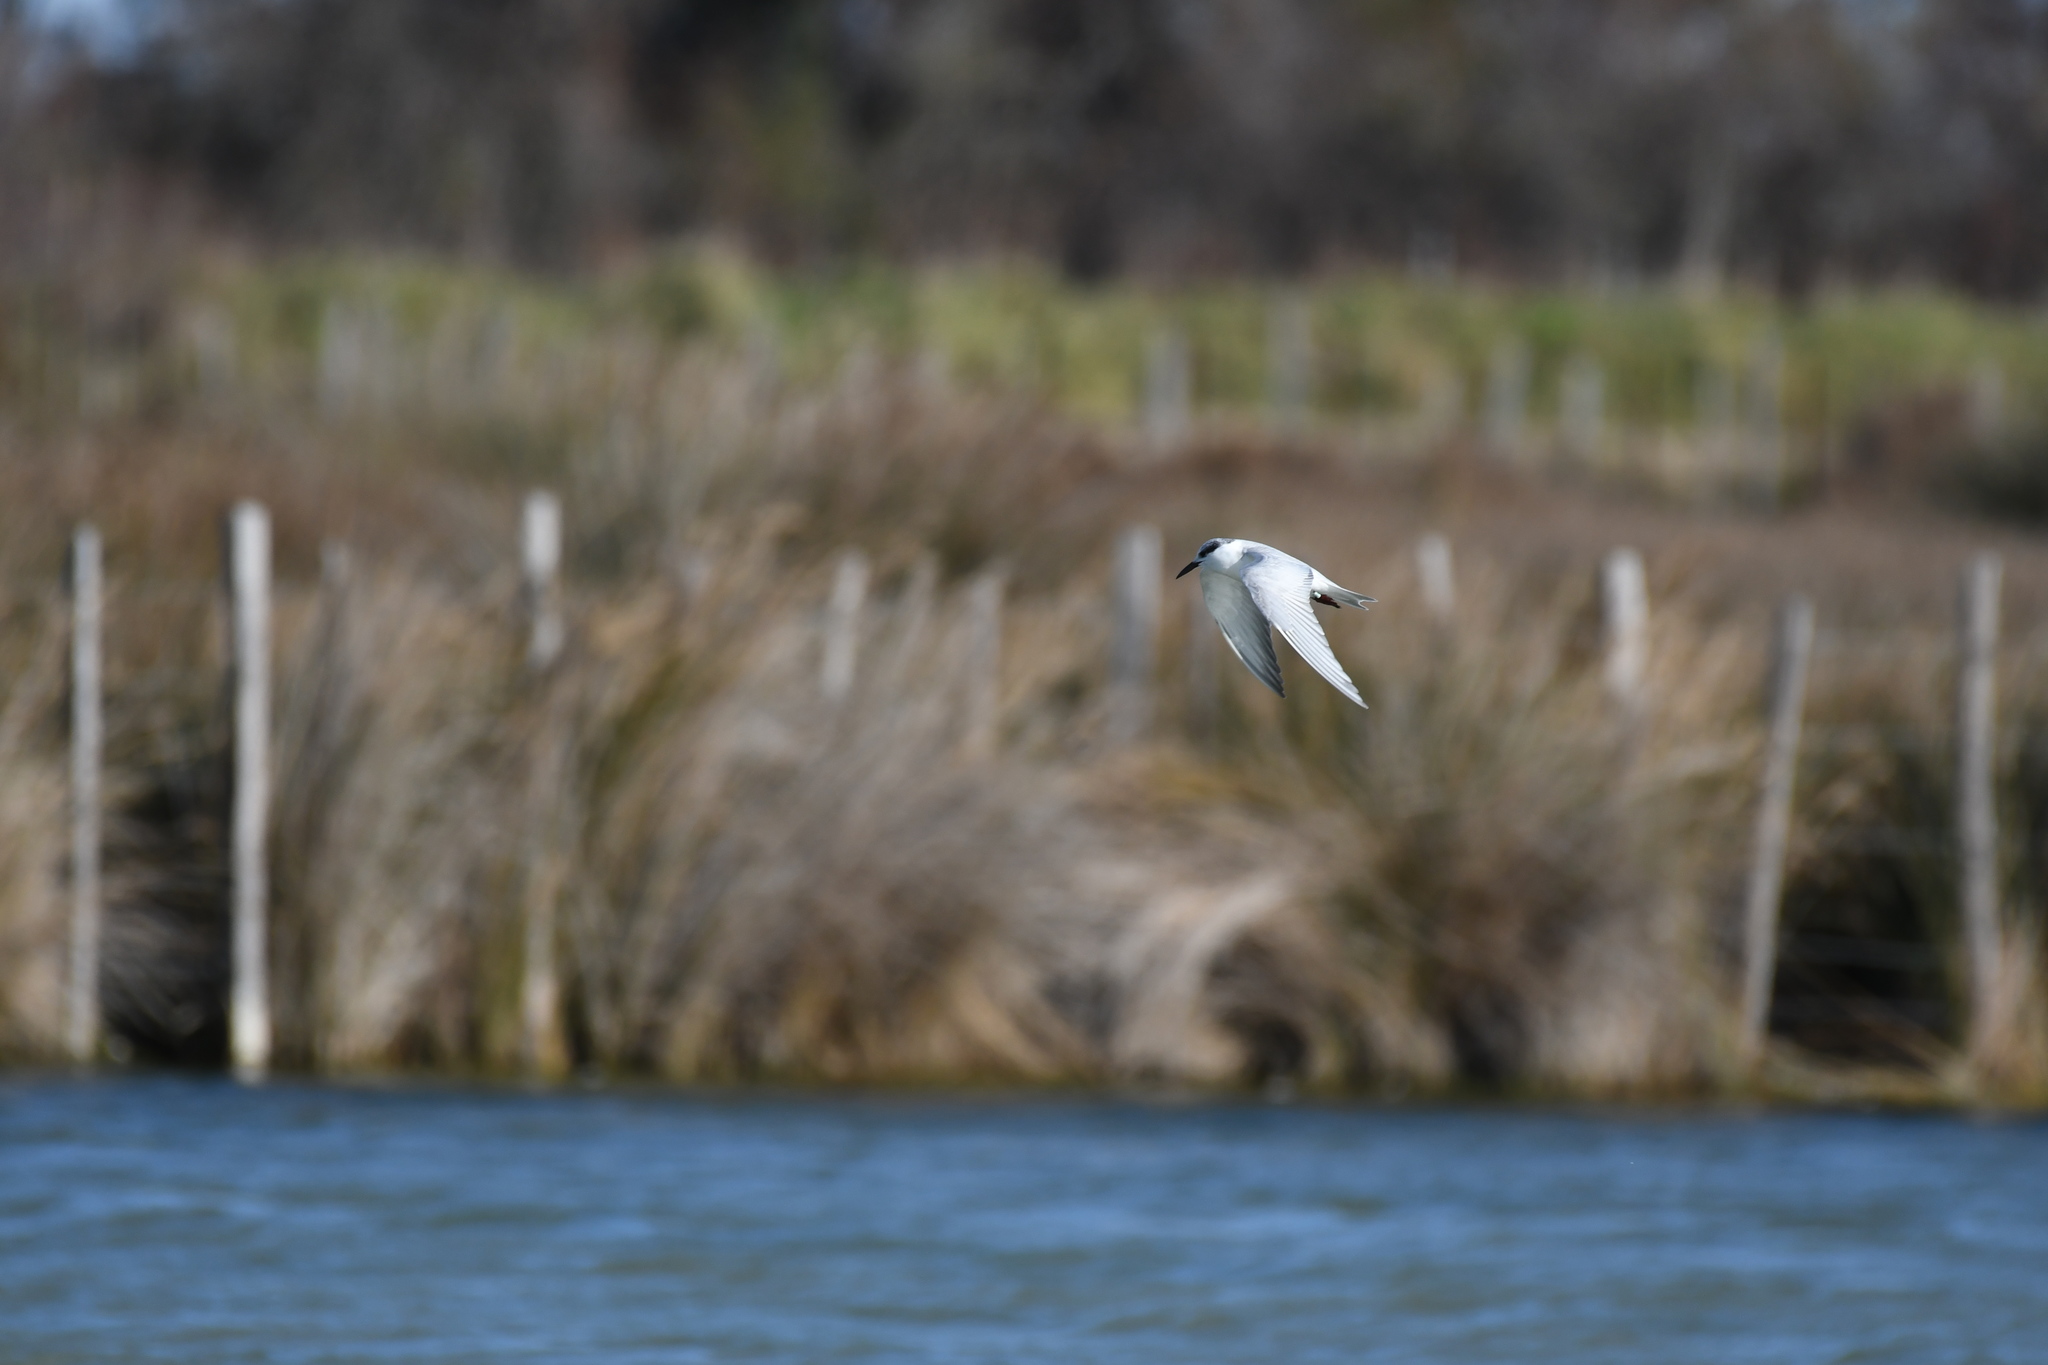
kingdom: Animalia
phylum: Chordata
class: Aves
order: Charadriiformes
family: Laridae
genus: Chlidonias
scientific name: Chlidonias hybrida
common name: Whiskered tern
